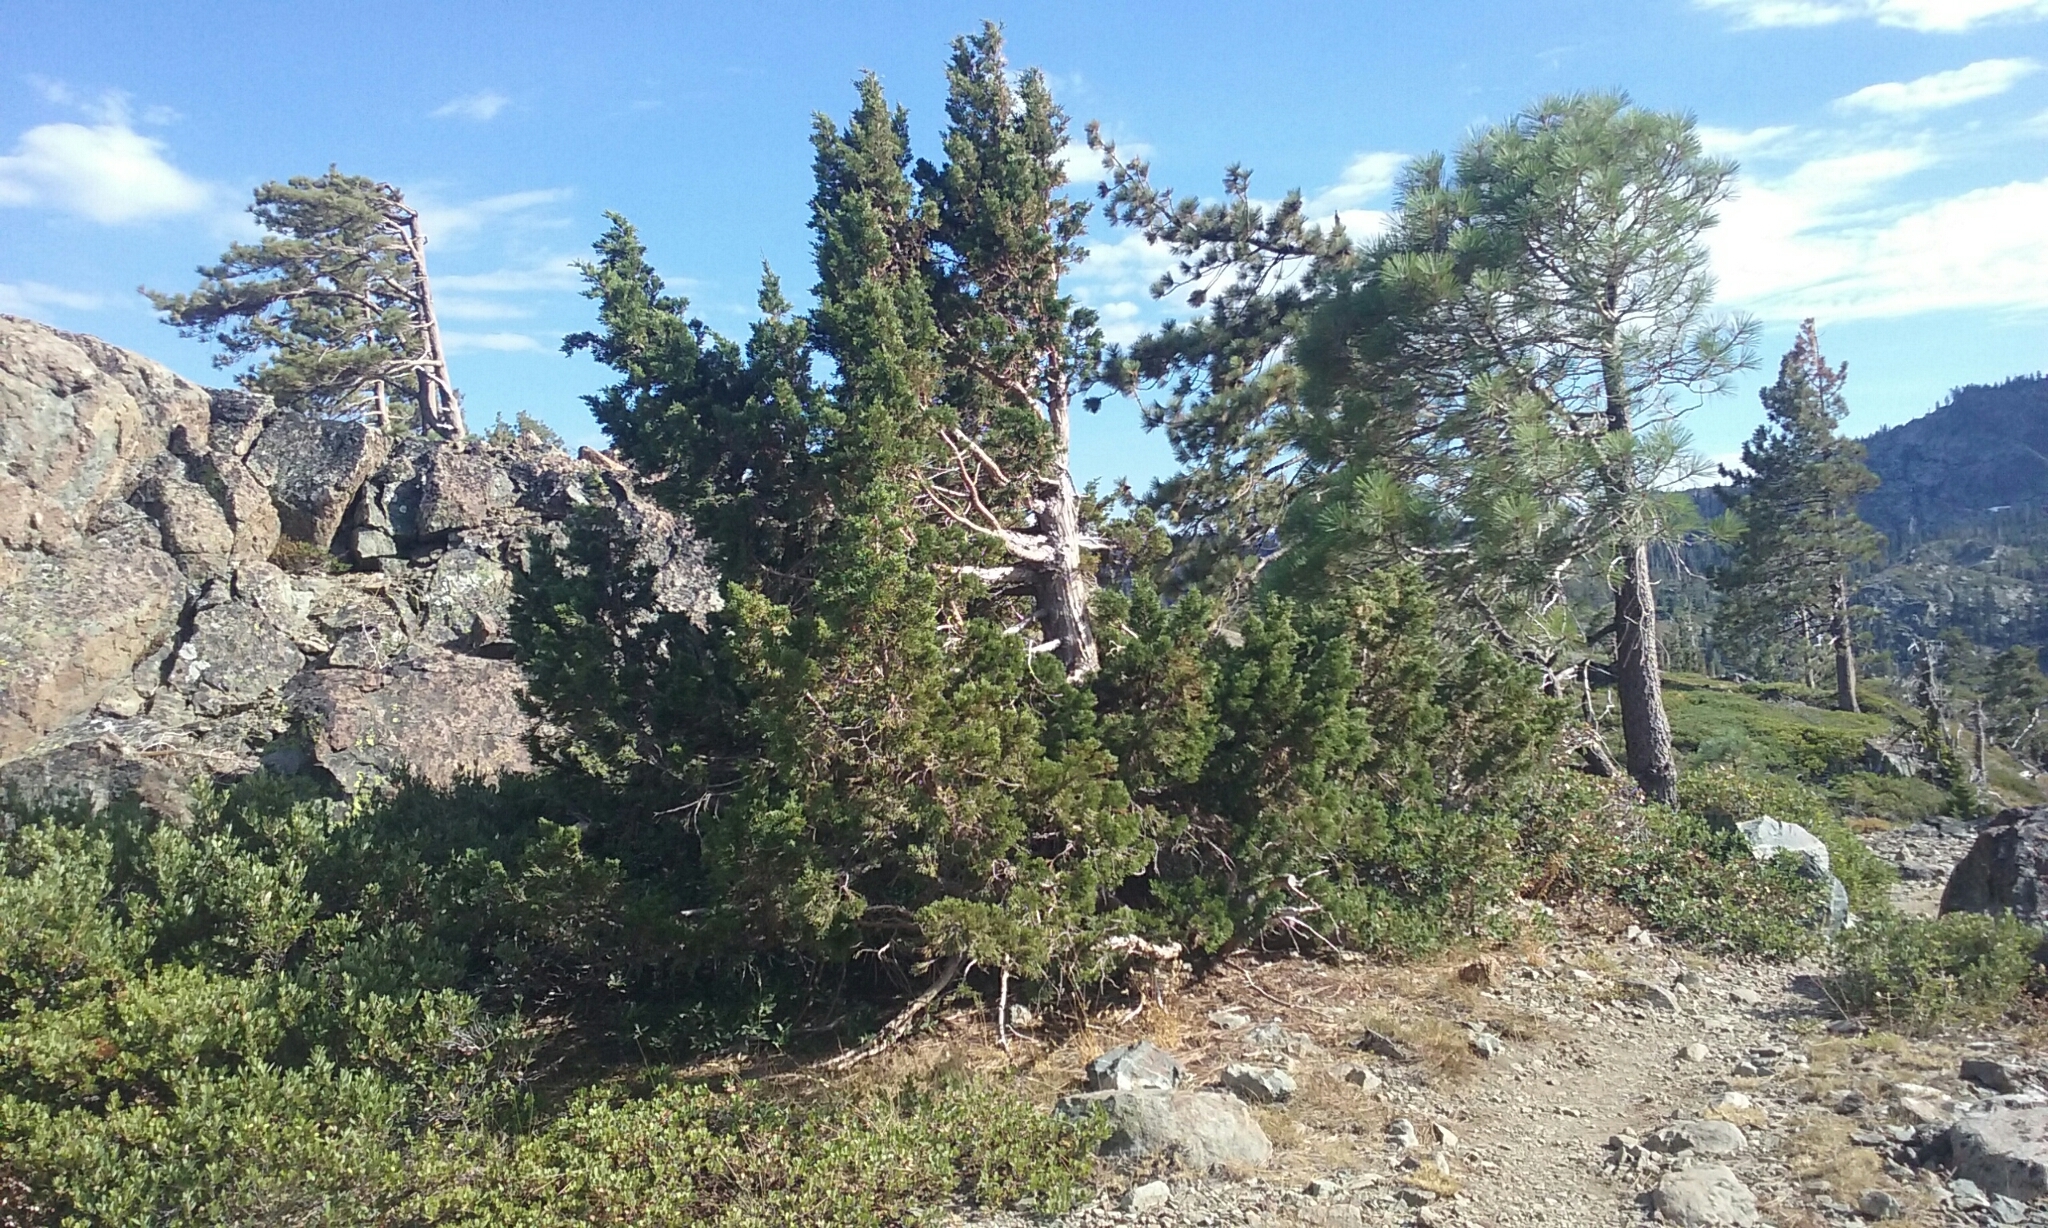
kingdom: Plantae
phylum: Tracheophyta
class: Pinopsida
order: Pinales
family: Cupressaceae
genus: Juniperus
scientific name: Juniperus occidentalis
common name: Western juniper
